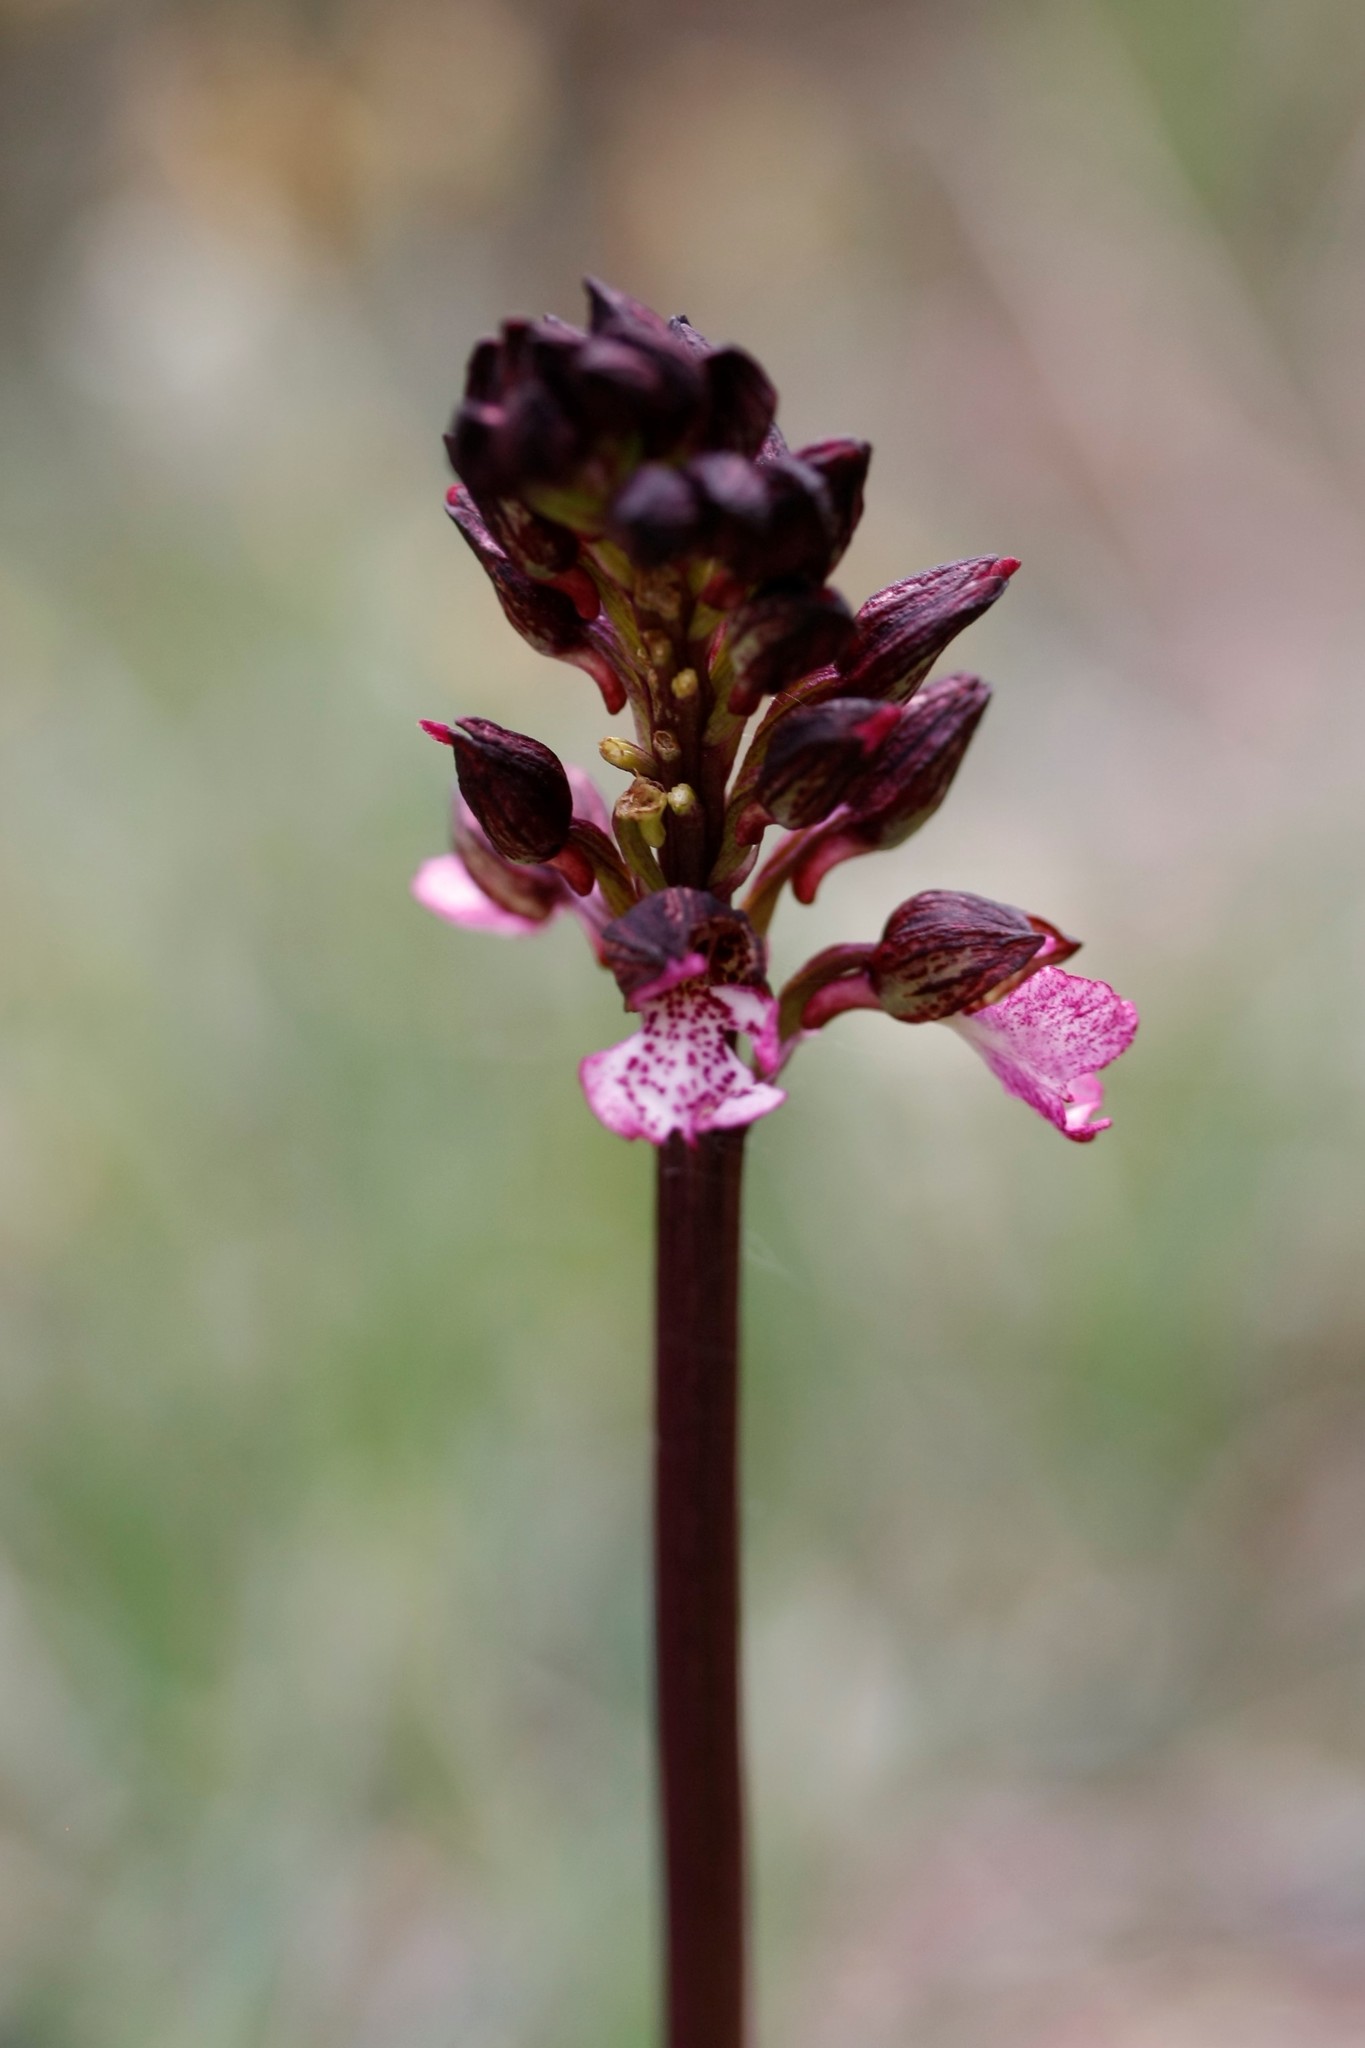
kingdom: Plantae
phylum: Tracheophyta
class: Liliopsida
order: Asparagales
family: Orchidaceae
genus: Orchis
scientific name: Orchis purpurea
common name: Lady orchid
